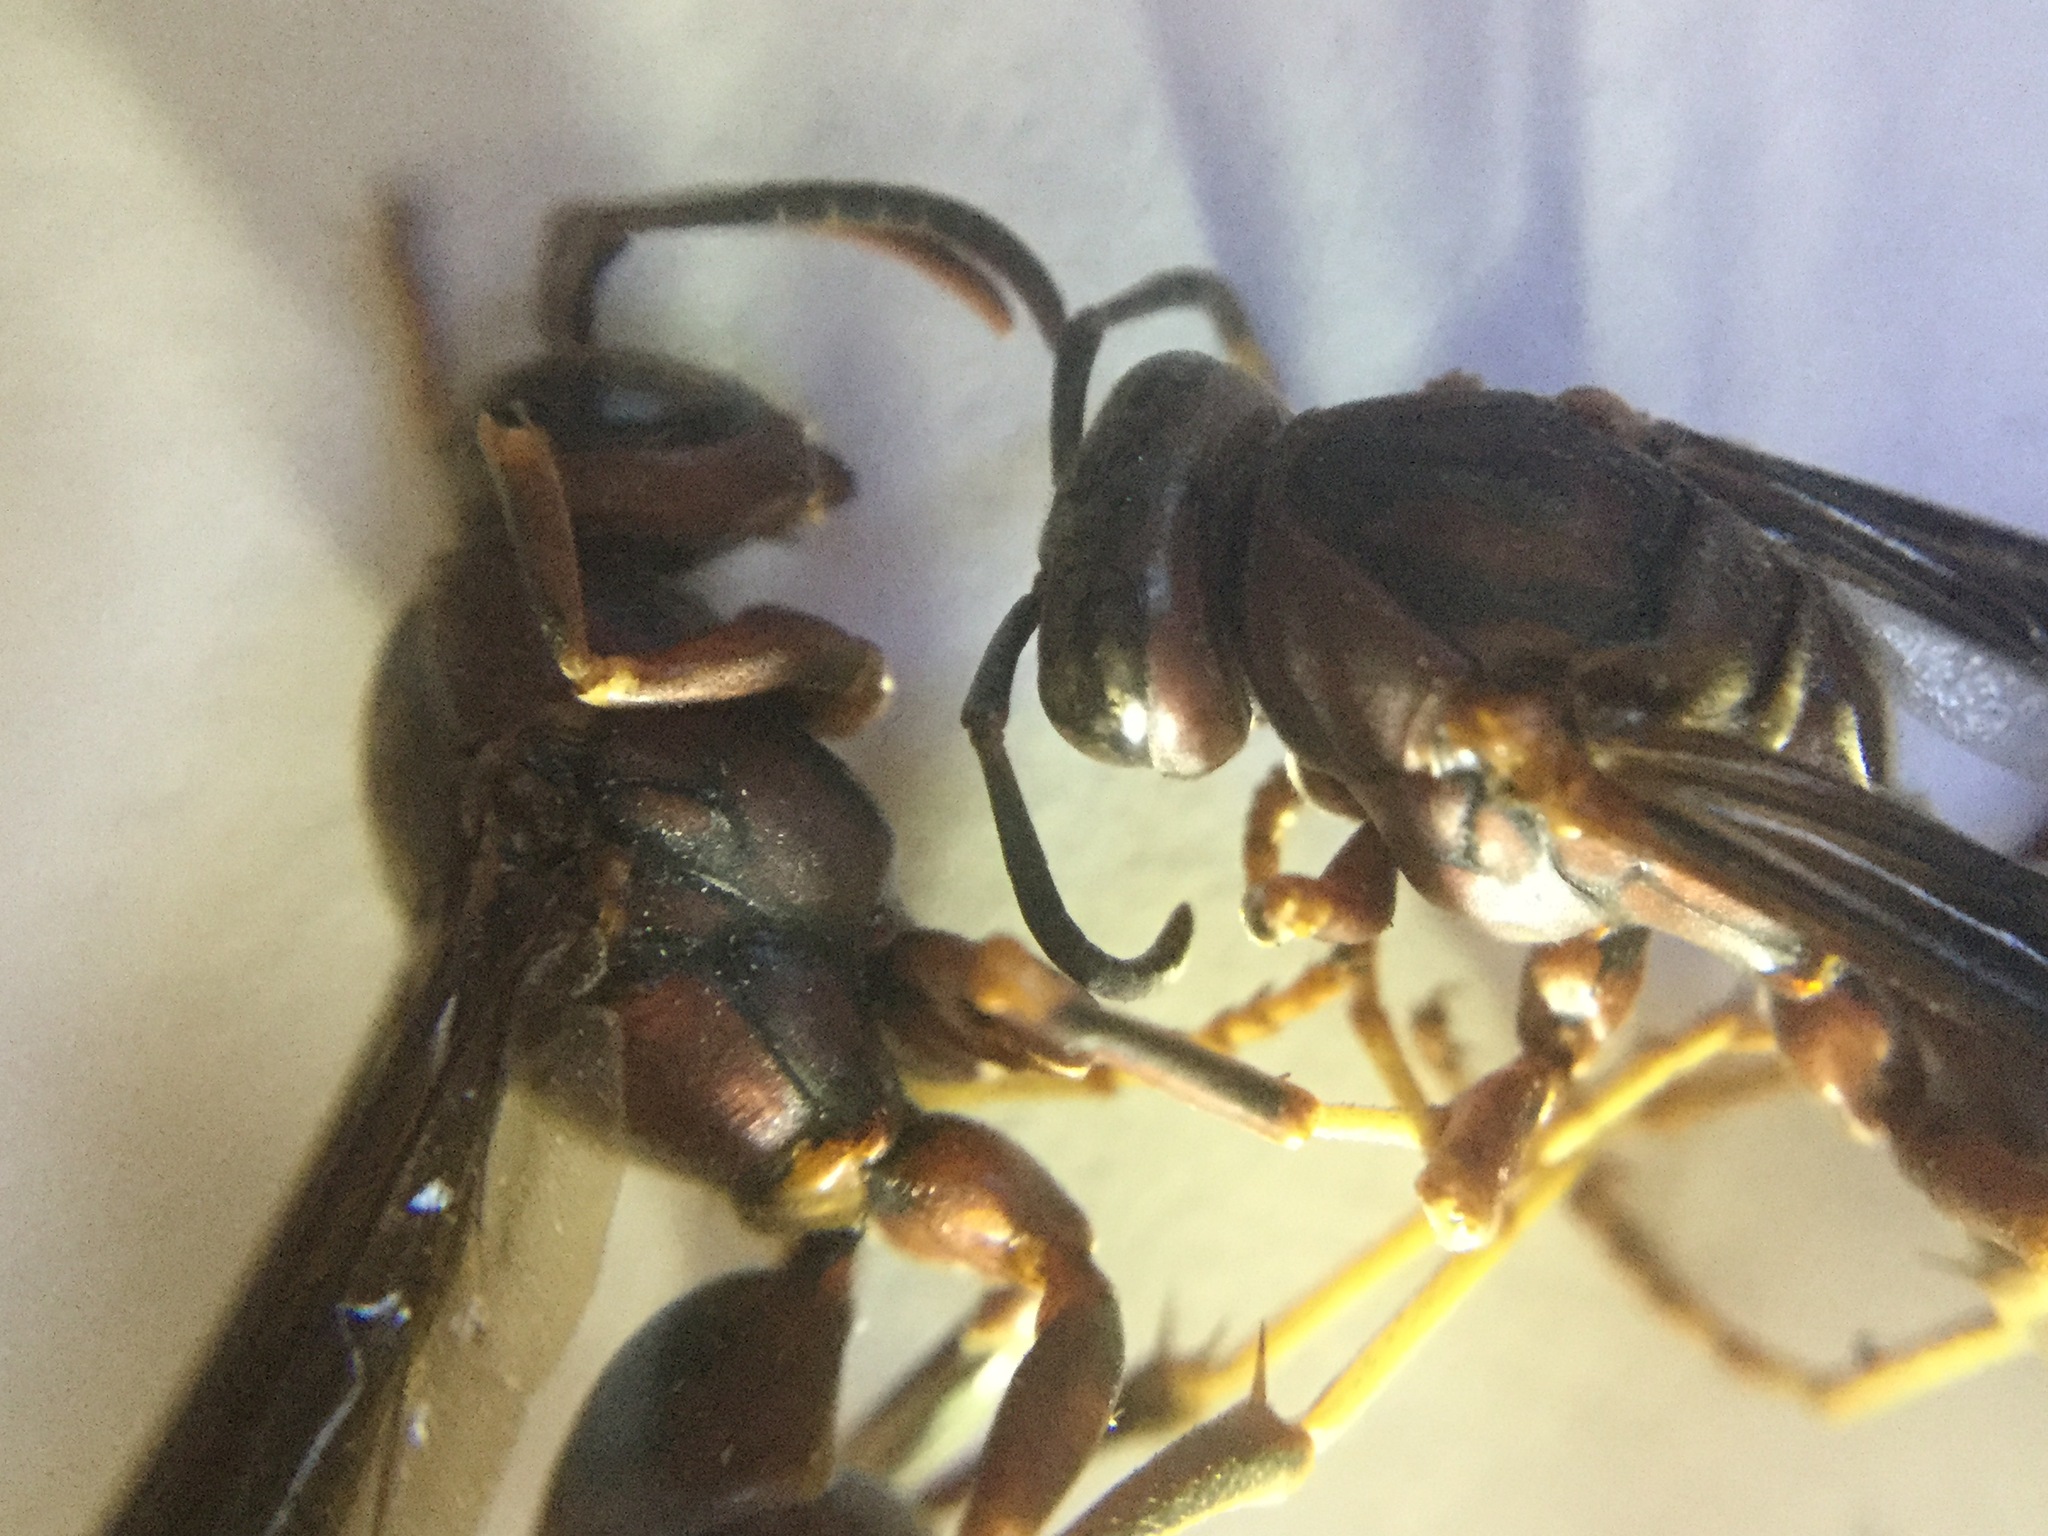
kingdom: Animalia
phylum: Arthropoda
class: Insecta
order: Hymenoptera
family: Eumenidae
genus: Polistes
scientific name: Polistes metricus
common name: Metric paper wasp
